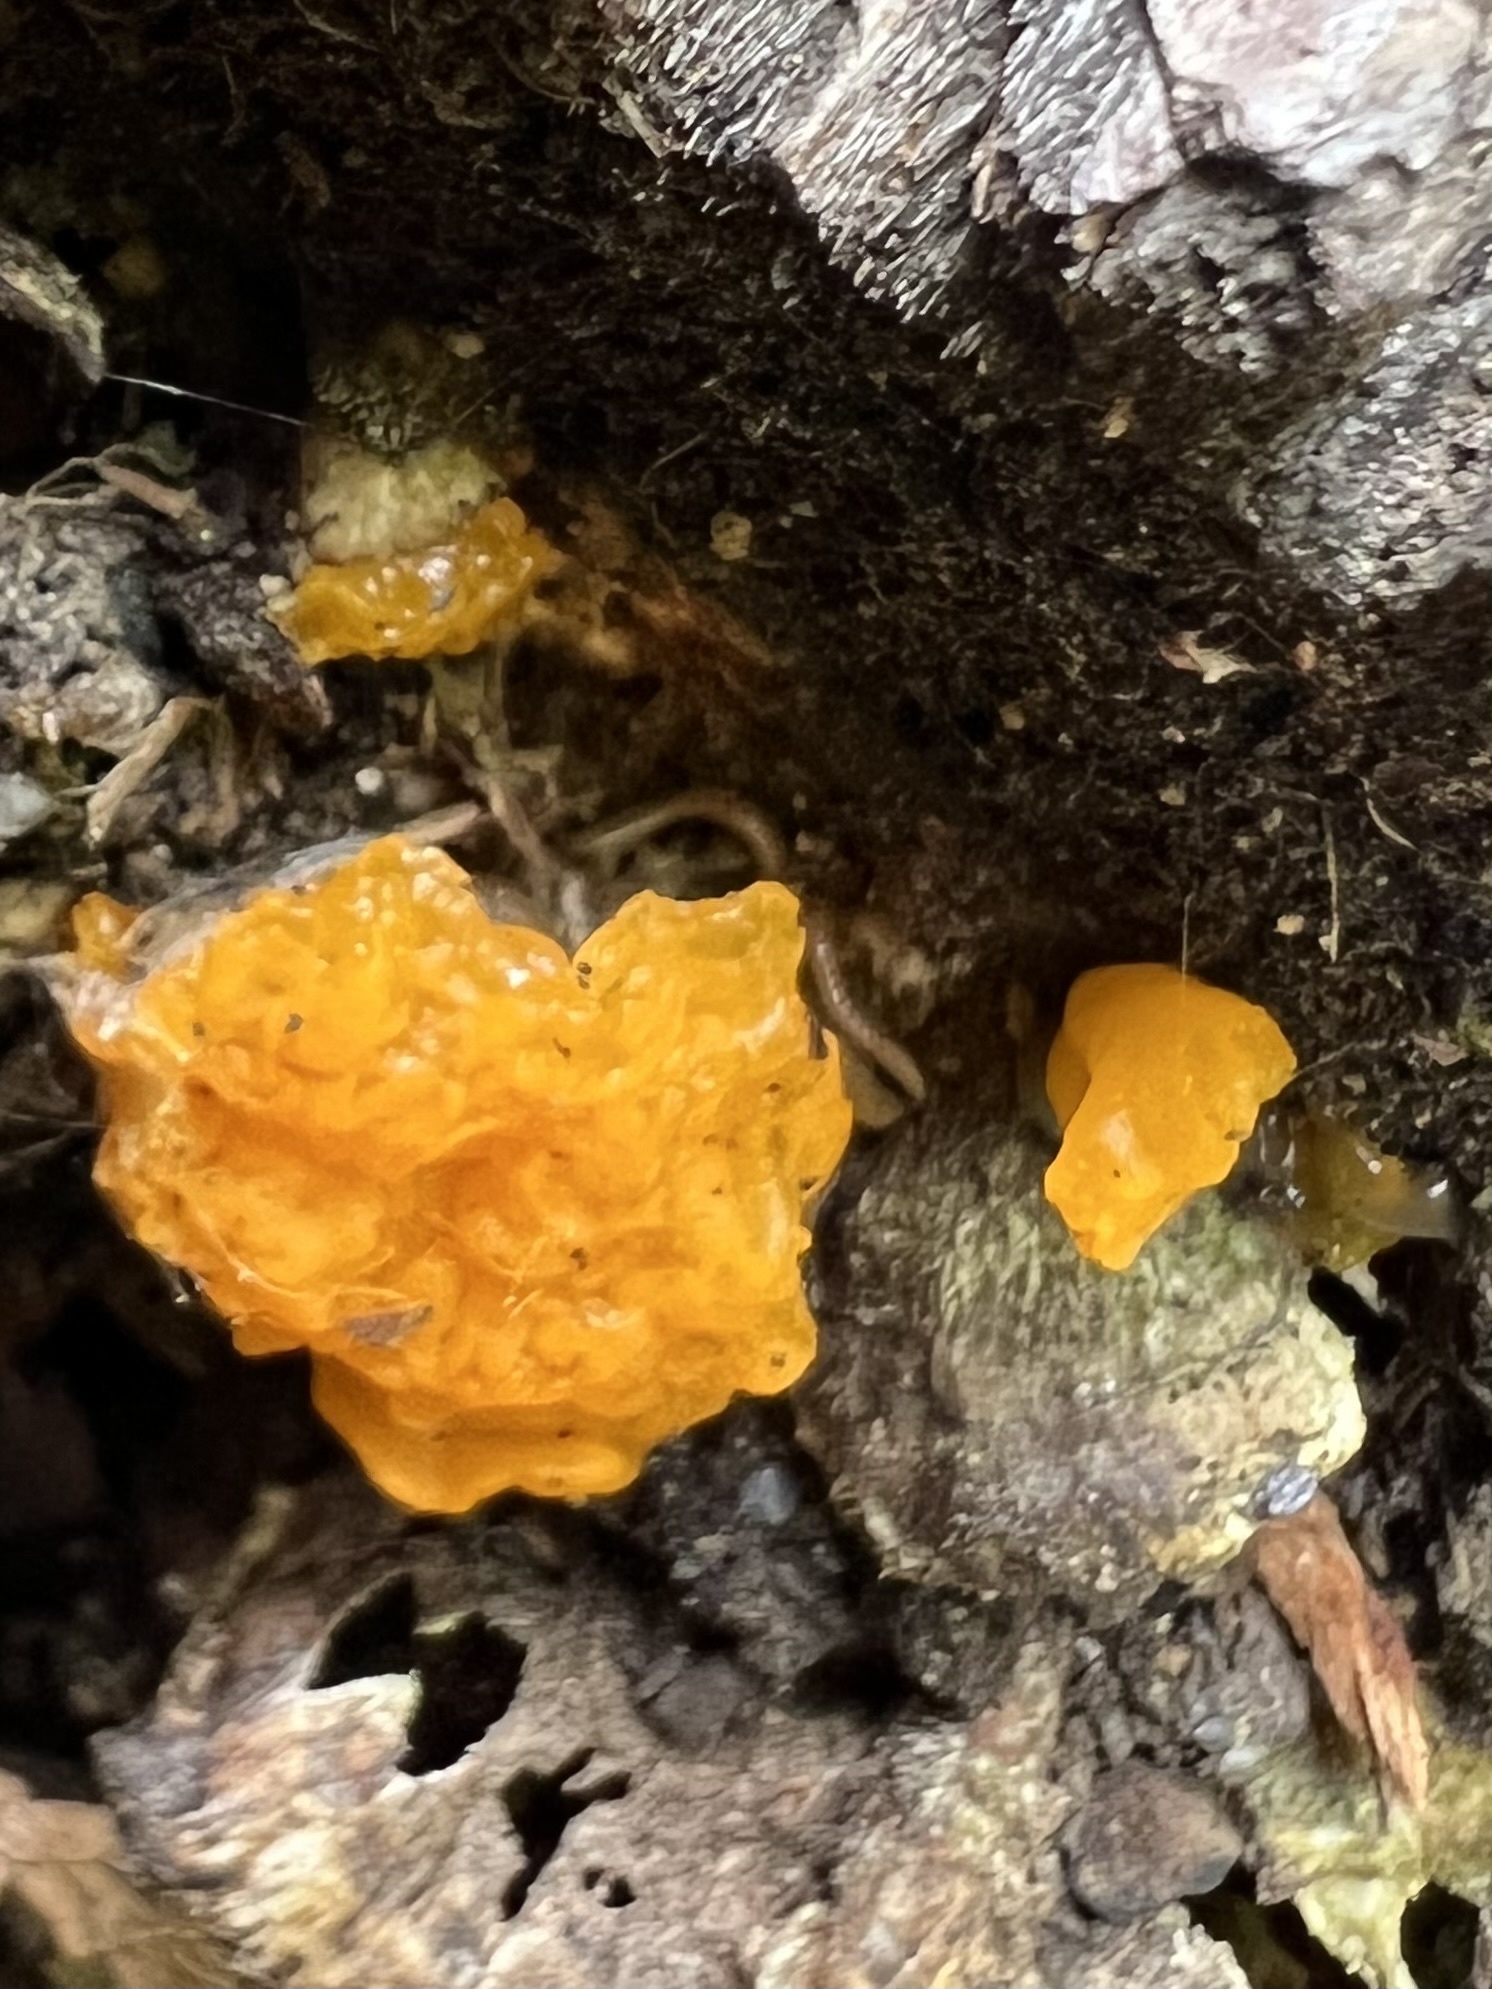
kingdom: Fungi
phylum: Basidiomycota
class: Dacrymycetes
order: Dacrymycetales
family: Dacrymycetaceae
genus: Dacrymyces
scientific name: Dacrymyces chrysospermus
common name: Orange jelly spot
